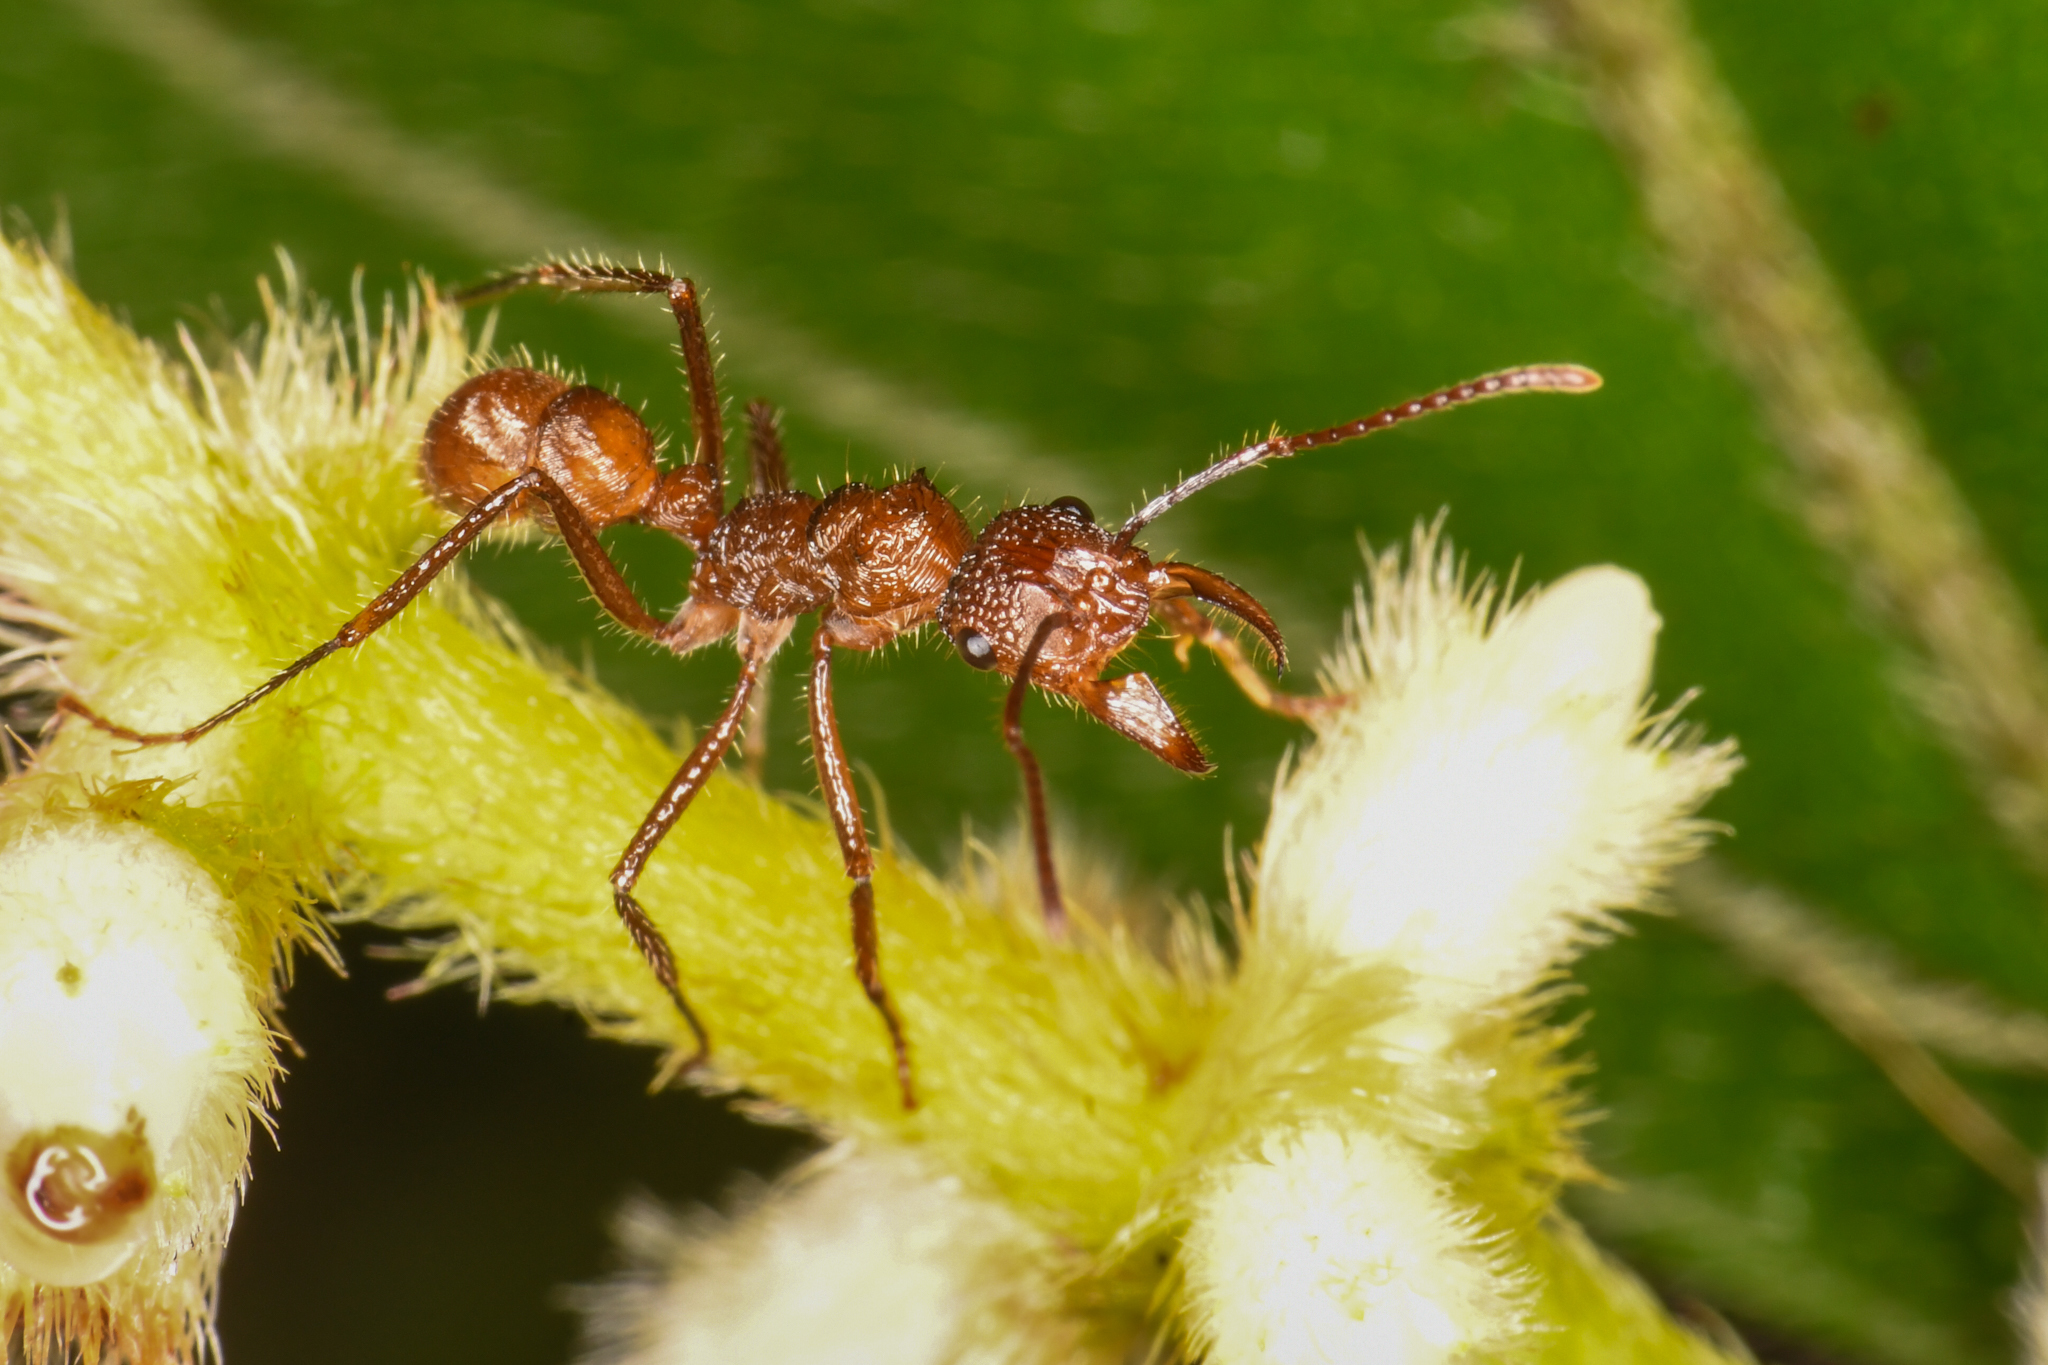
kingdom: Animalia
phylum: Arthropoda
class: Insecta
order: Hymenoptera
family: Formicidae
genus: Ectatomma
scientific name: Ectatomma tuberculatum
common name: Ant
